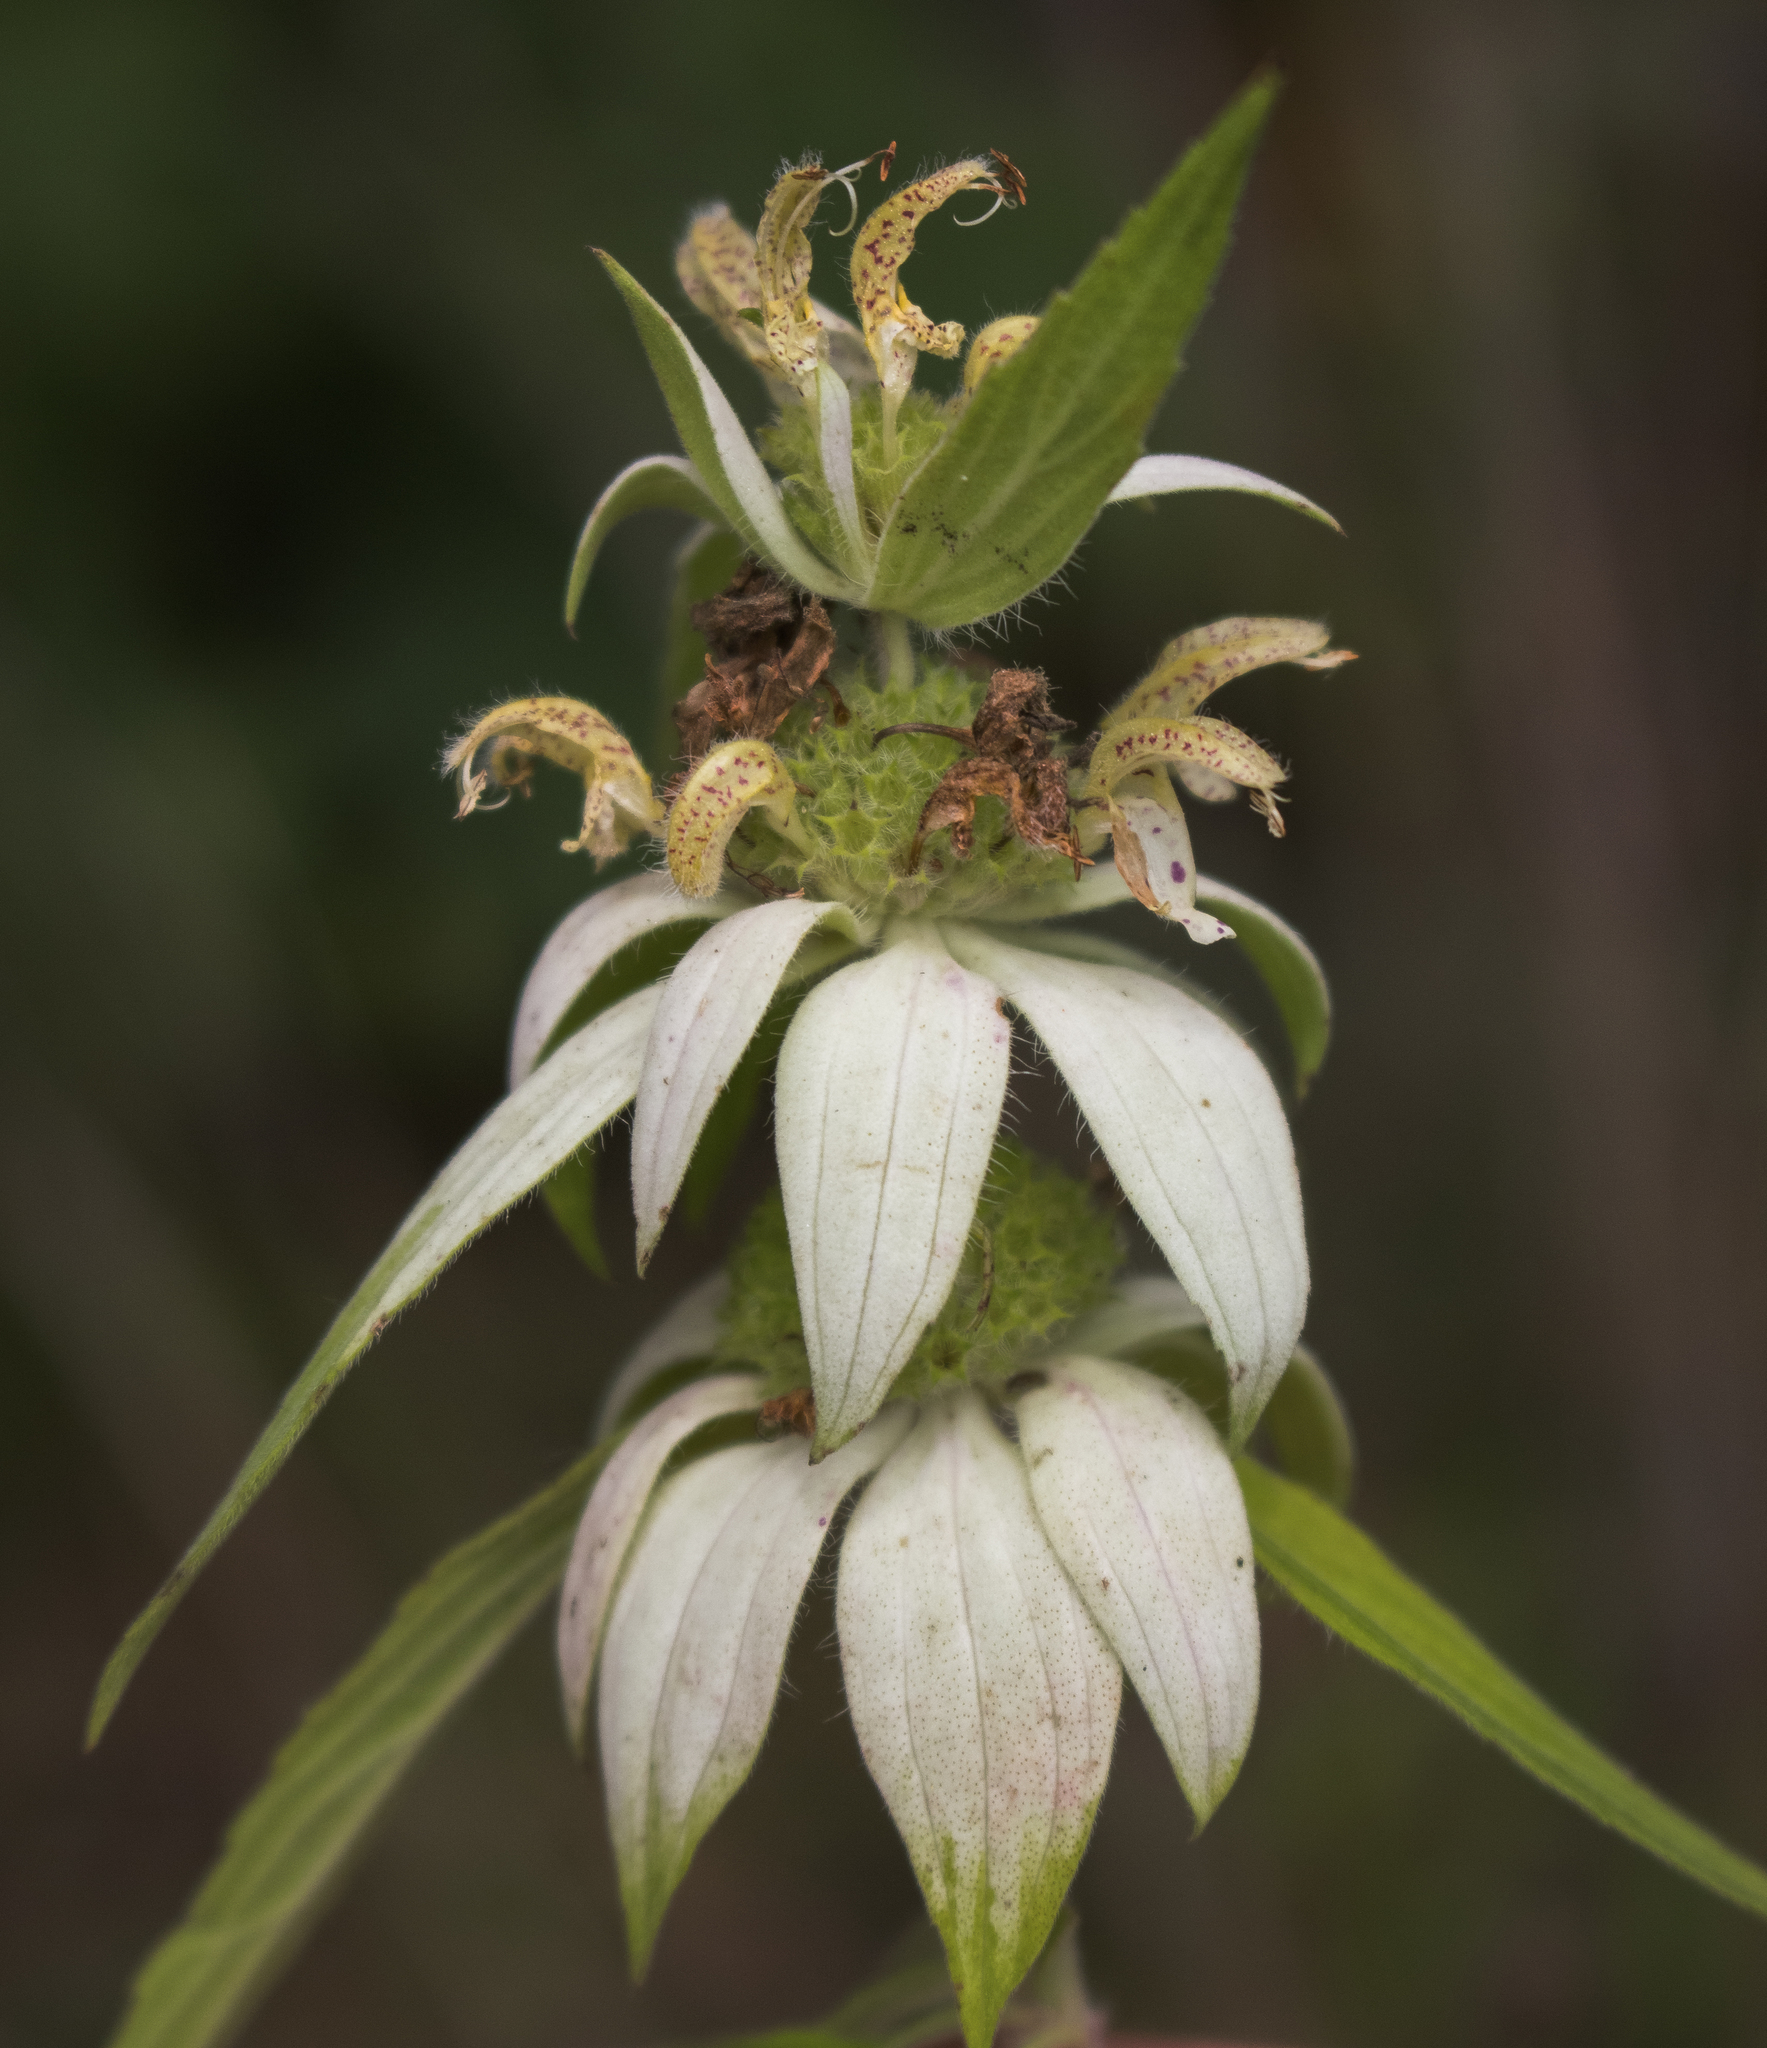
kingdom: Plantae
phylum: Tracheophyta
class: Magnoliopsida
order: Lamiales
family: Lamiaceae
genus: Monarda
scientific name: Monarda punctata
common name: Dotted monarda
